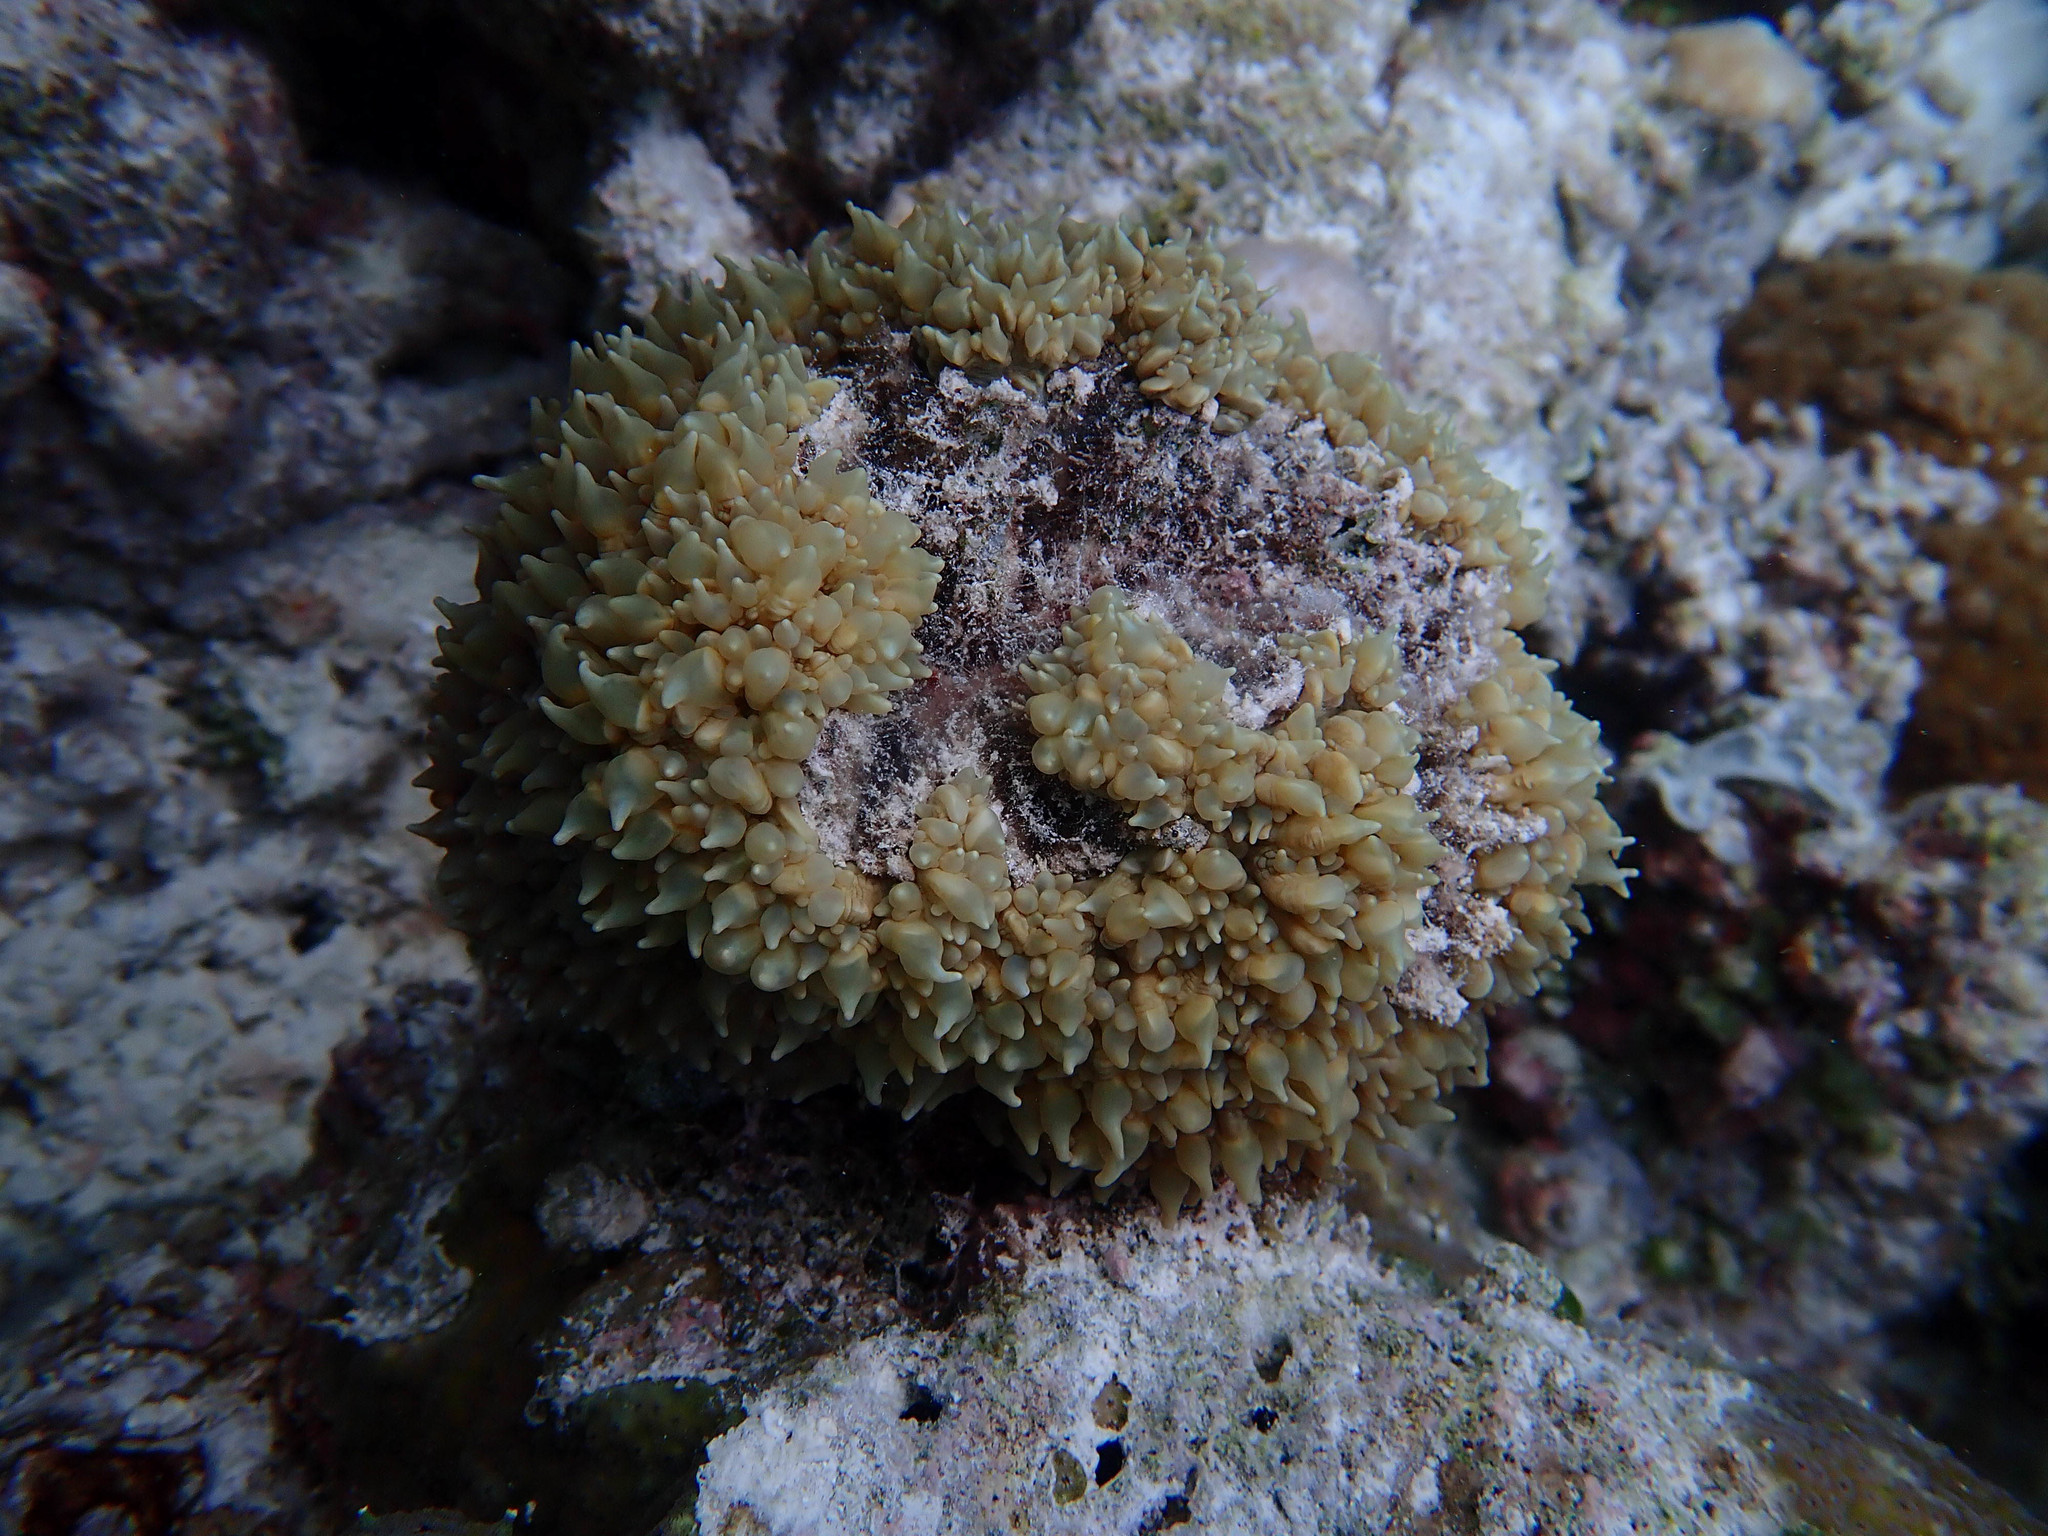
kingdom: Animalia
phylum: Cnidaria
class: Anthozoa
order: Scleractinia
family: Plerogyridae
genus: Physogyra
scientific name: Physogyra lichtensteini
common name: Tipped bubblegum coral
